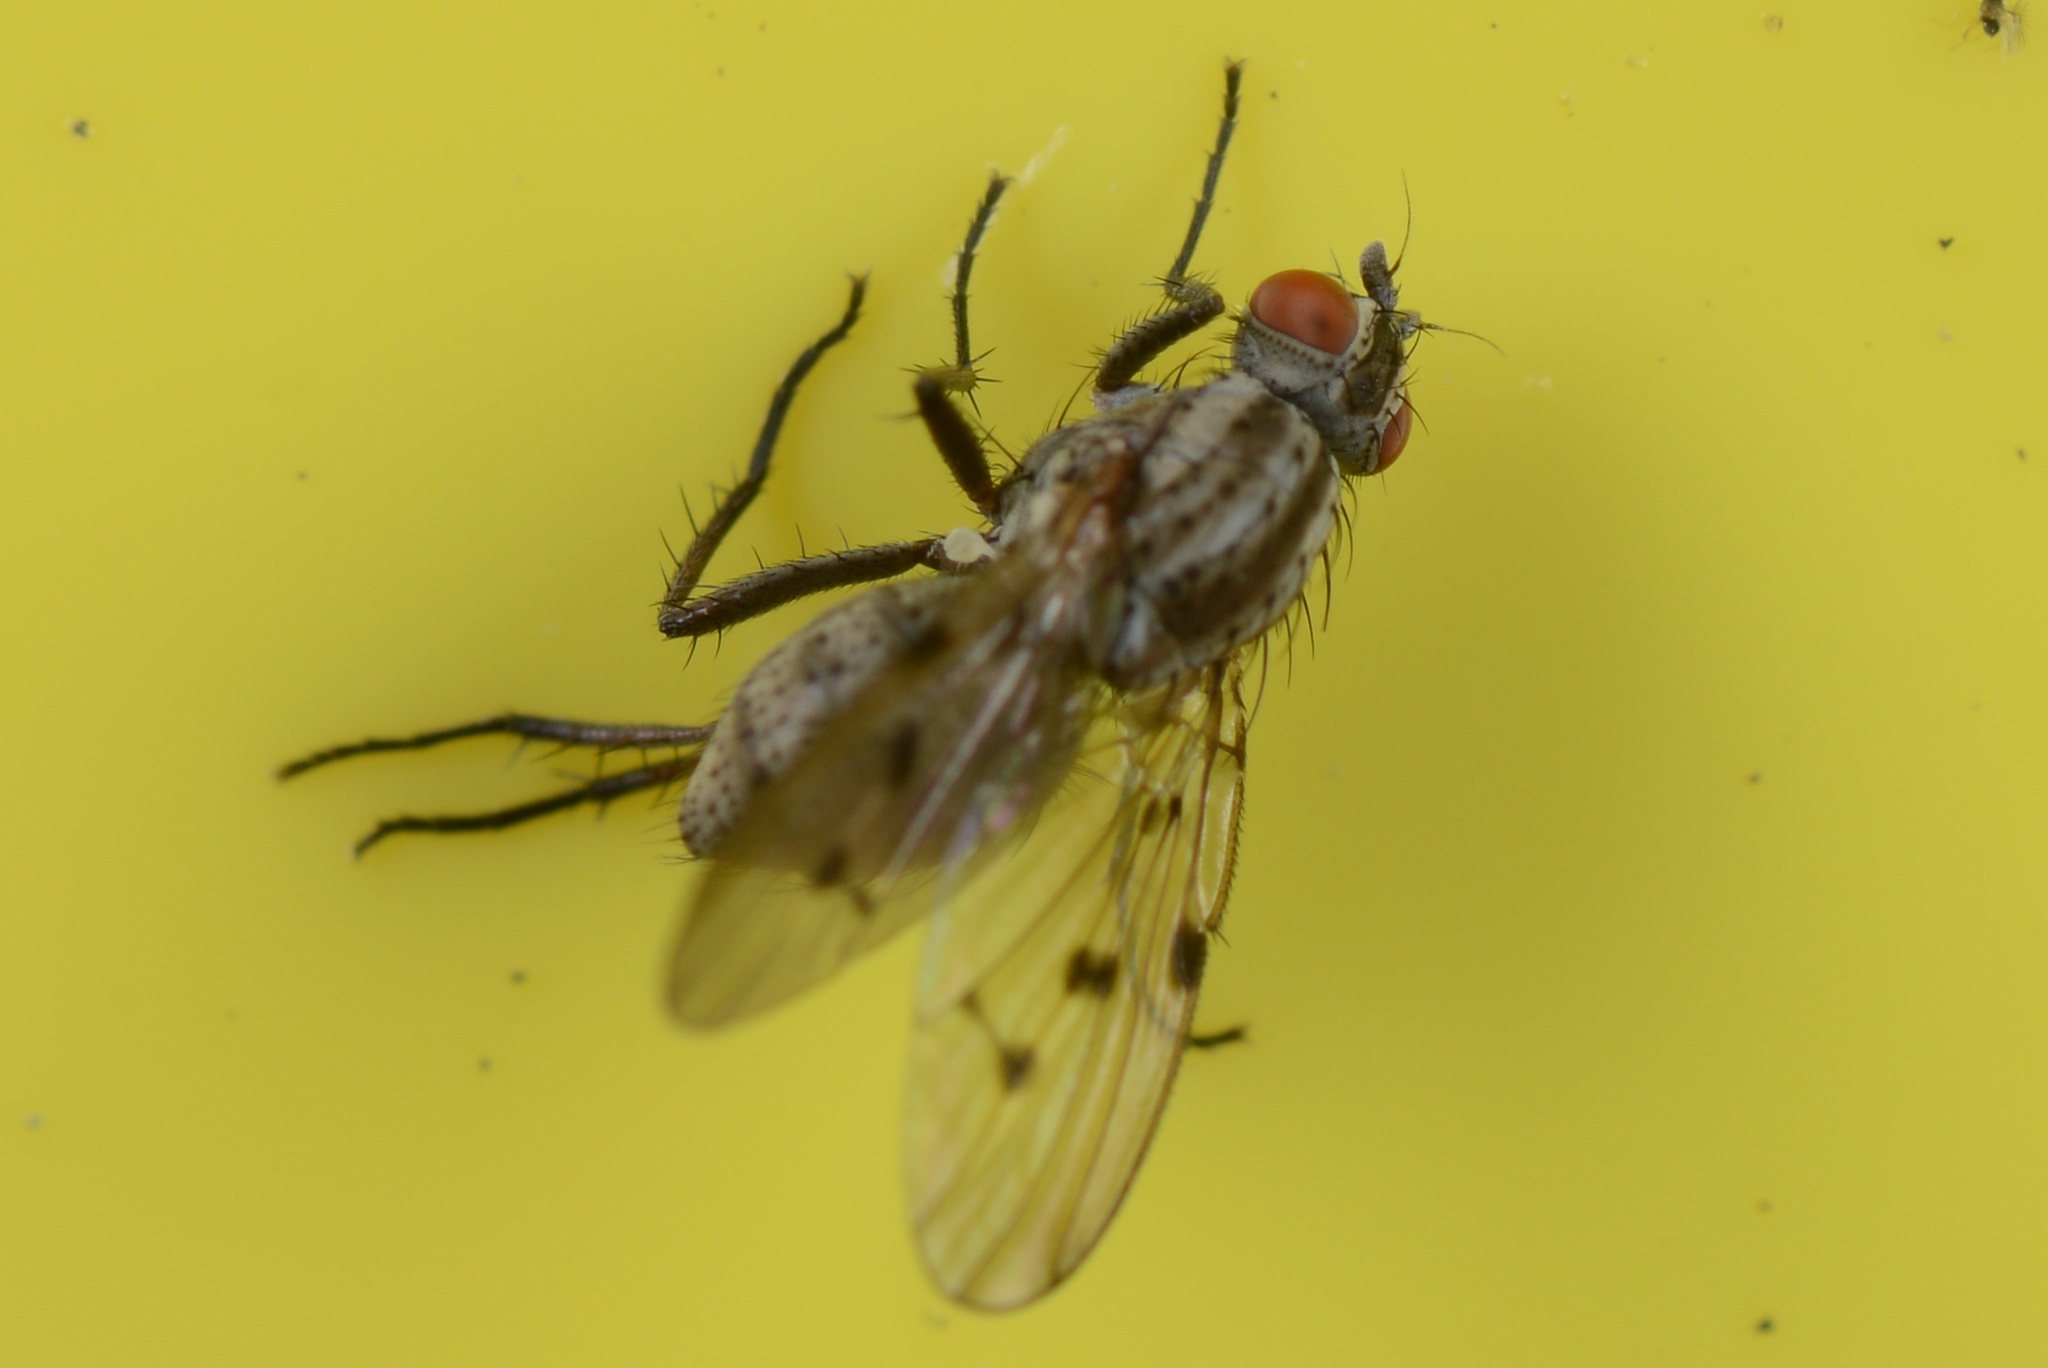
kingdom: Animalia
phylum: Arthropoda
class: Insecta
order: Diptera
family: Anthomyiidae
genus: Anthomyia
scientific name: Anthomyia punctipennis
